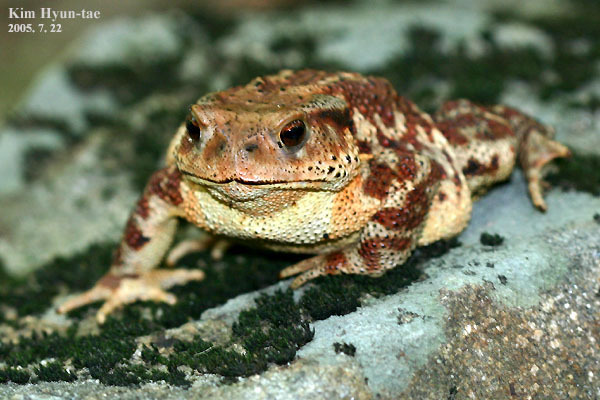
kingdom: Animalia
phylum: Chordata
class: Amphibia
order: Anura
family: Bufonidae
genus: Bufo
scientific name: Bufo gargarizans
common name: Asiatic toad
